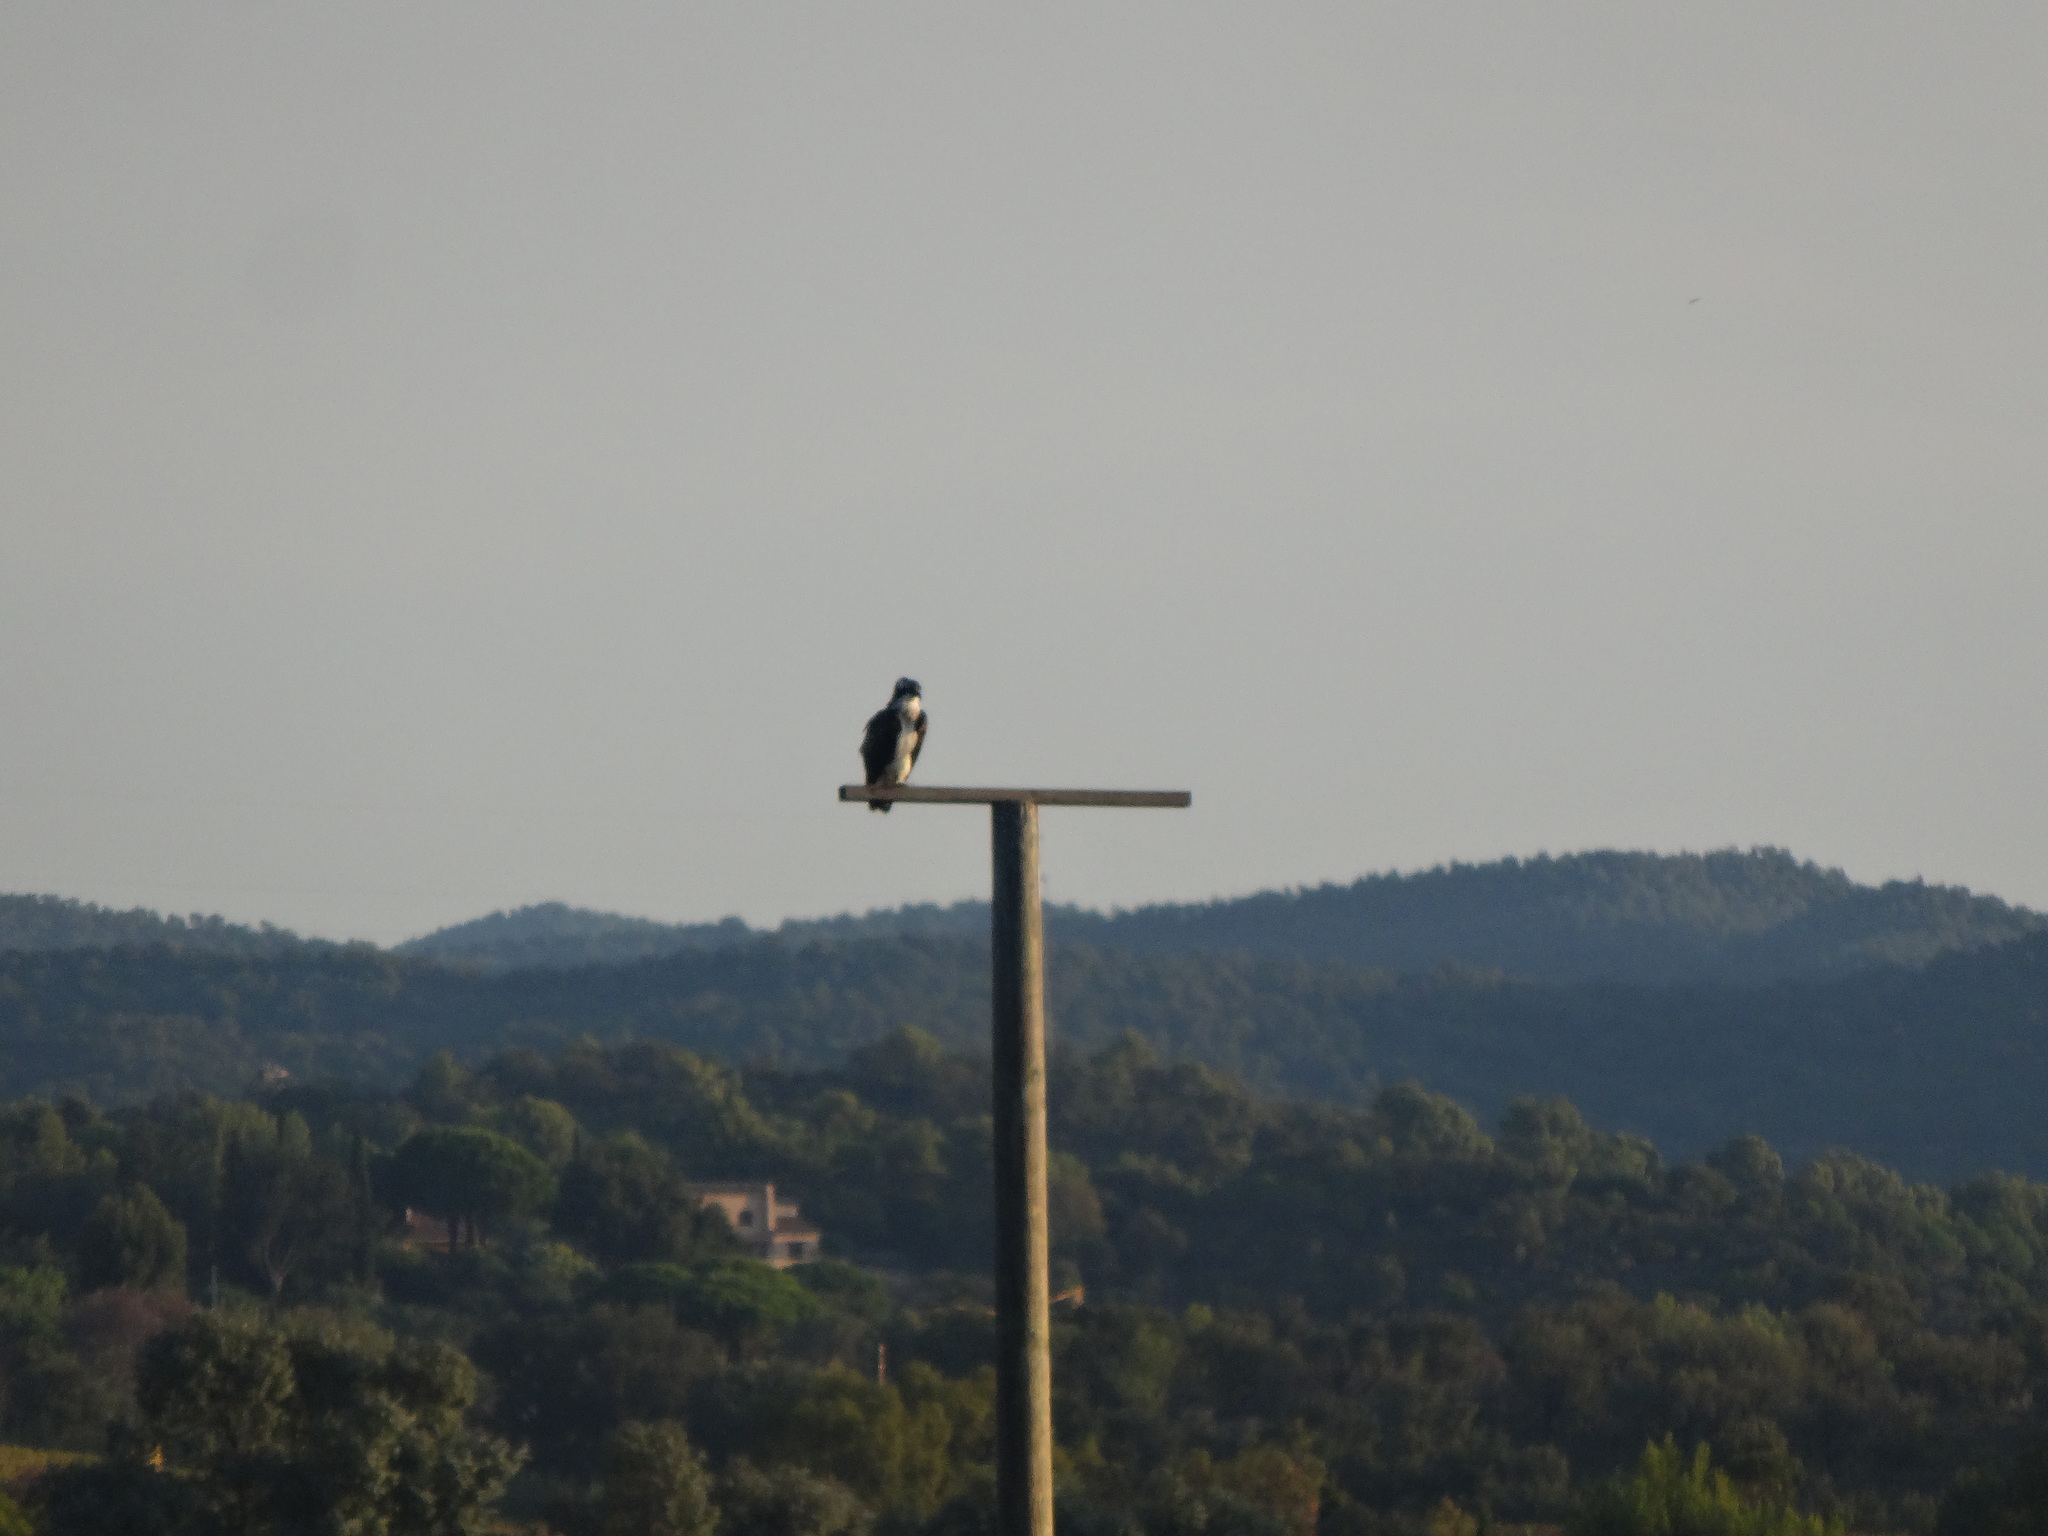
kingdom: Animalia
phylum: Chordata
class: Aves
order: Accipitriformes
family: Pandionidae
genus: Pandion
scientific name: Pandion haliaetus
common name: Osprey
